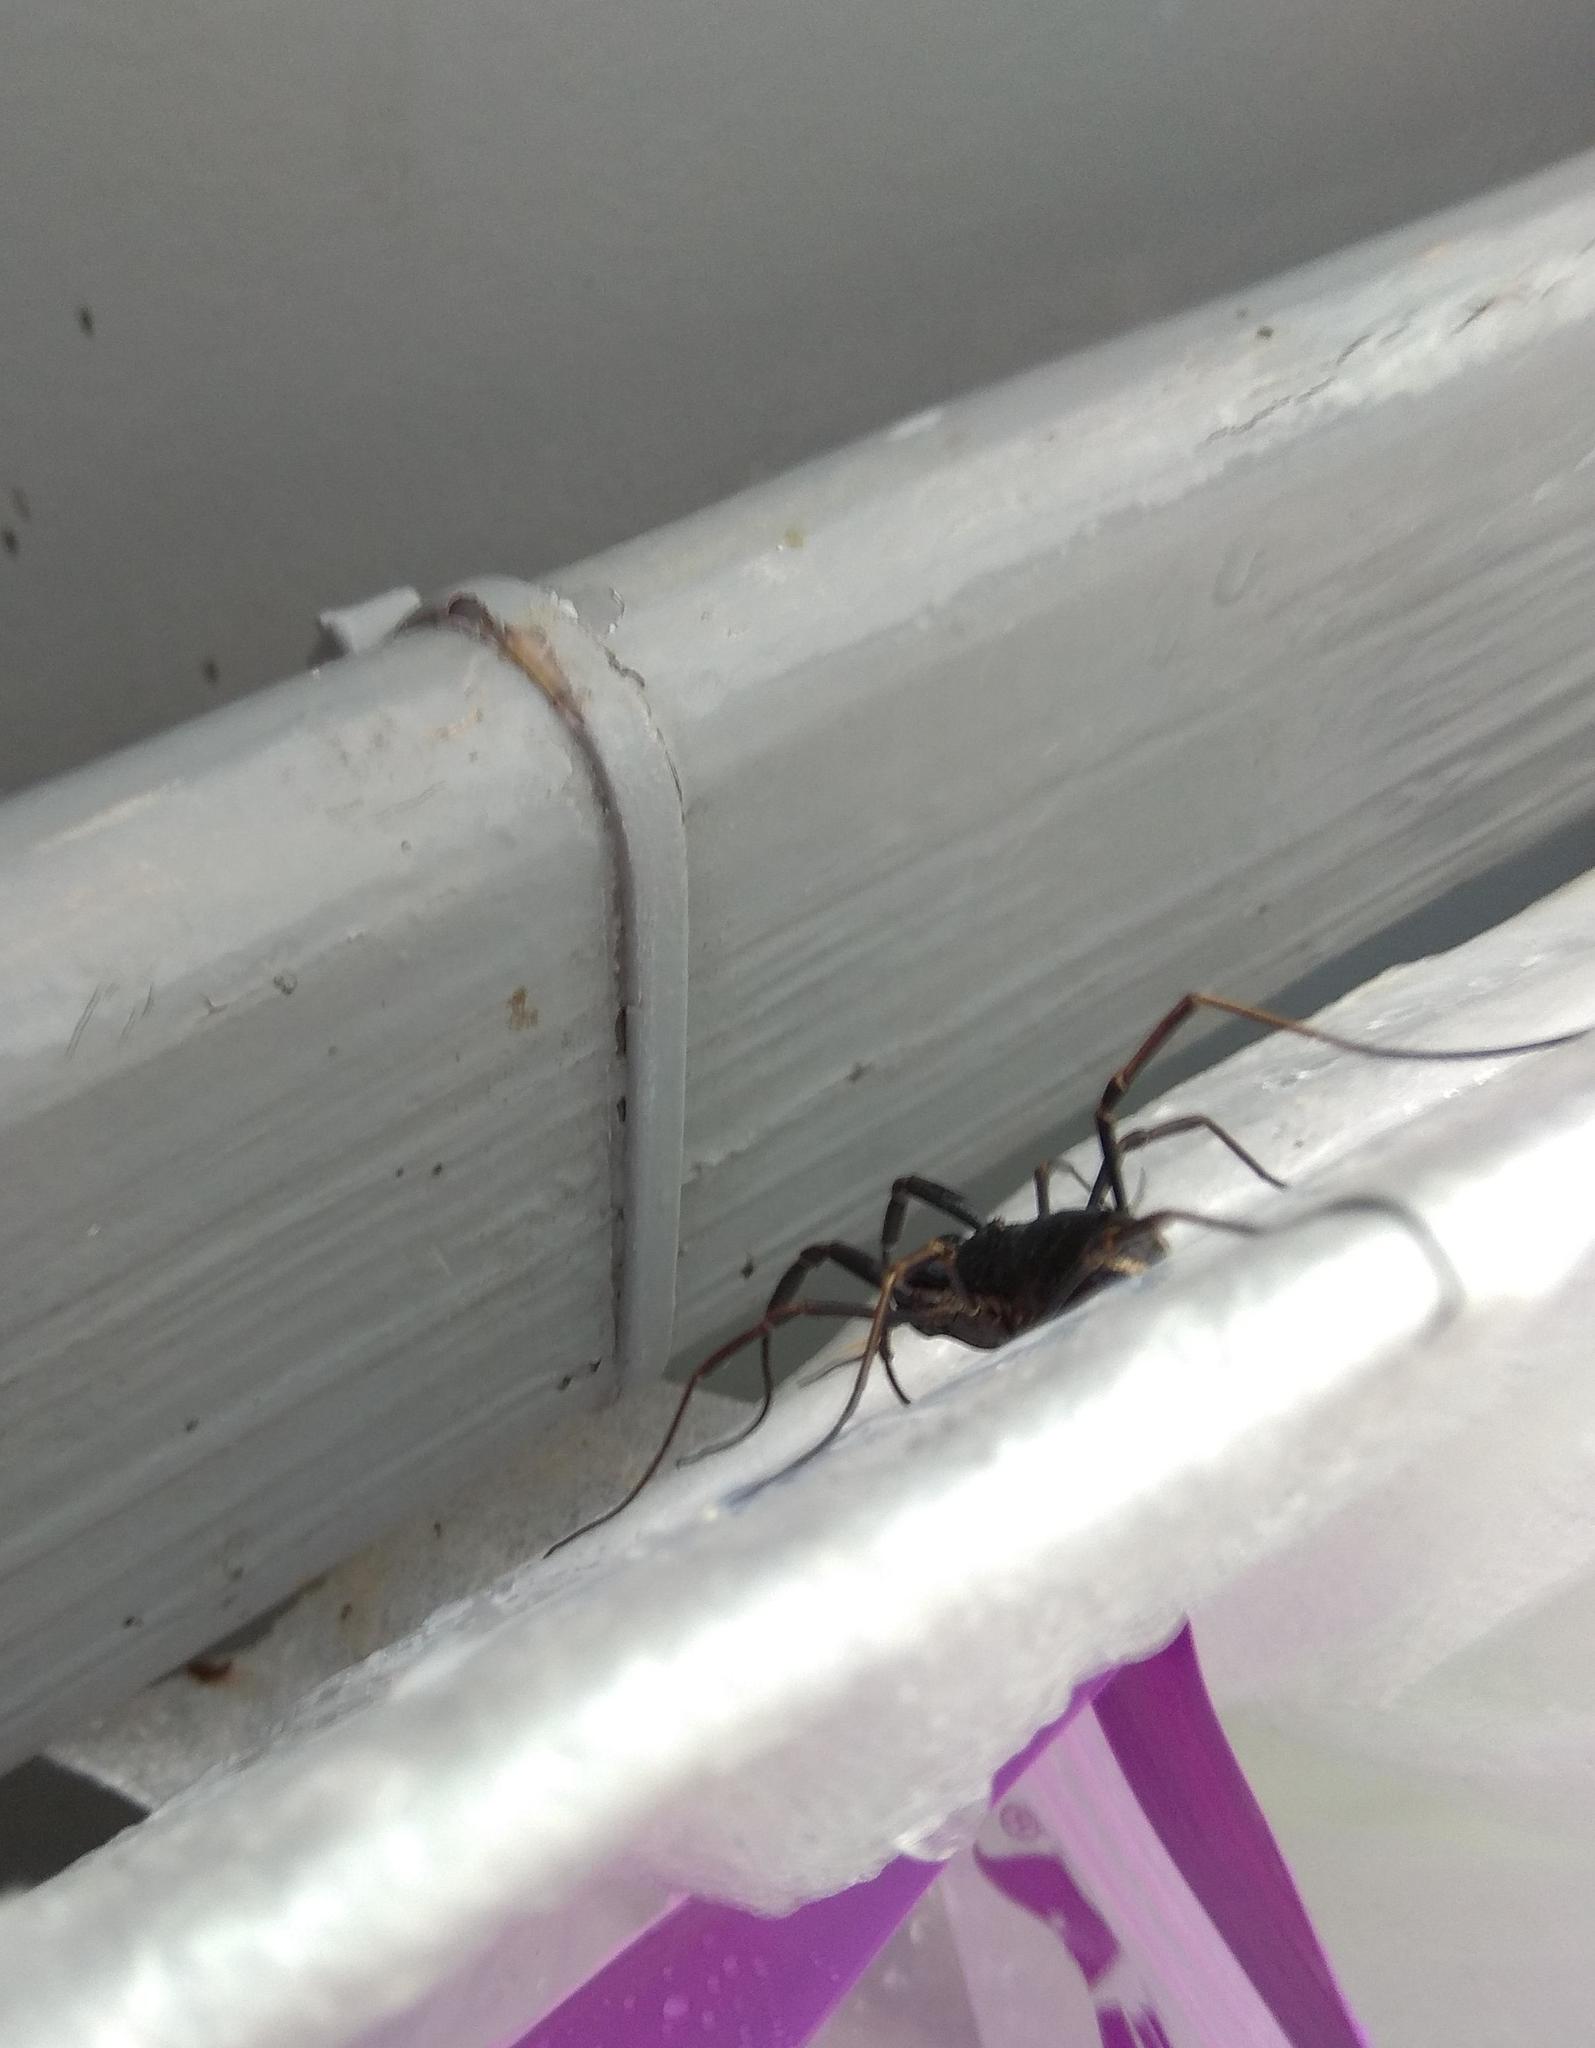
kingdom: Animalia
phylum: Arthropoda
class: Arachnida
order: Opiliones
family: Phalangiidae
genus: Zachaeus
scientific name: Zachaeus crista
